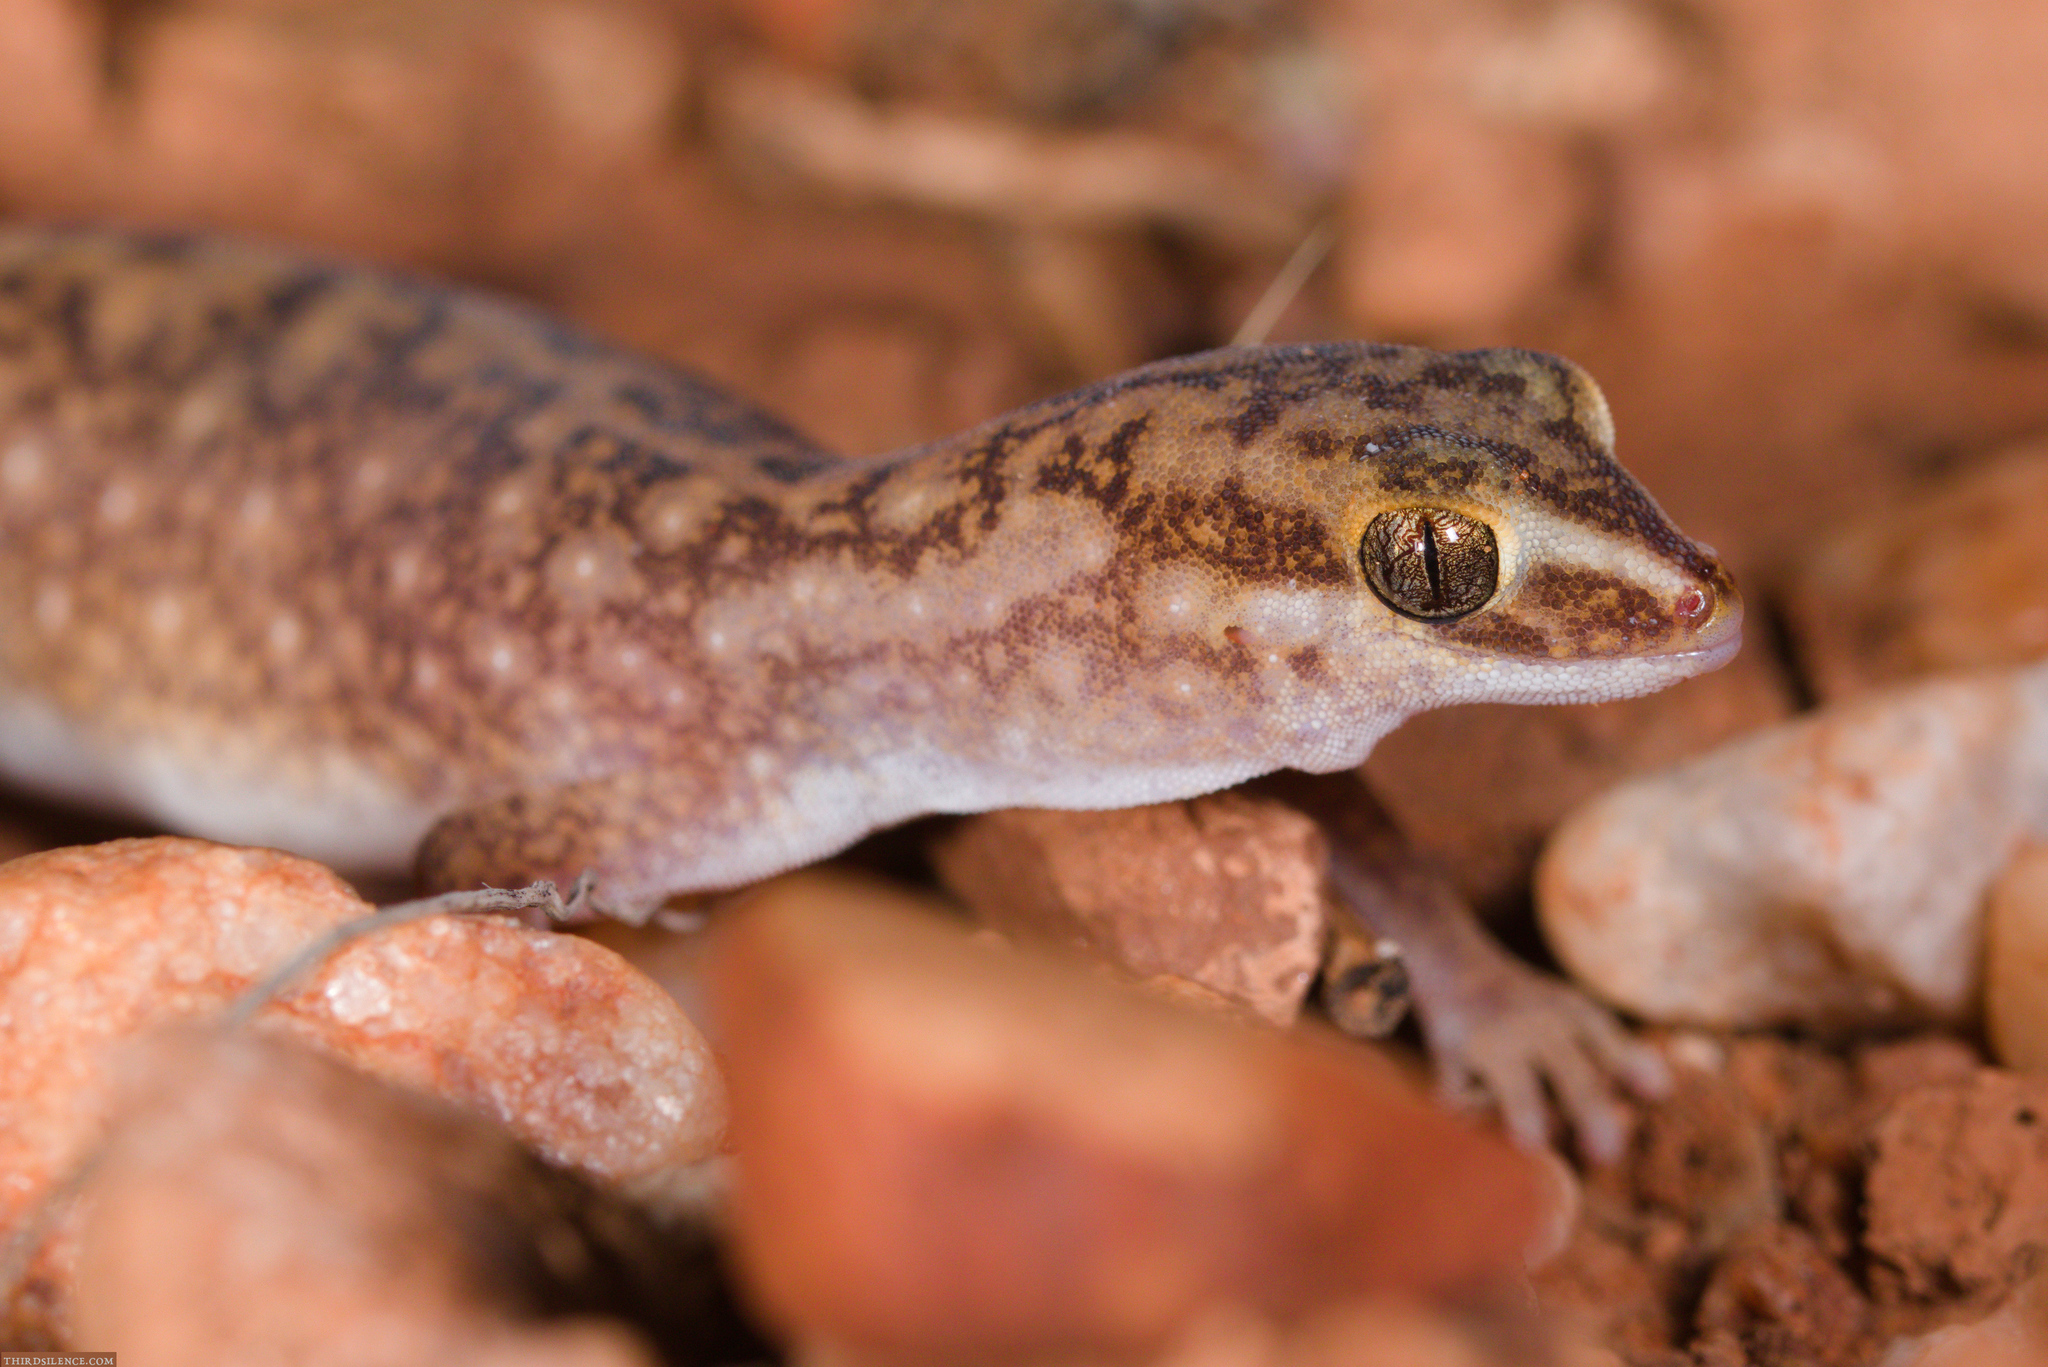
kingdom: Animalia
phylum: Chordata
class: Squamata
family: Diplodactylidae
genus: Diplodactylus
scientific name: Diplodactylus conspicillatus
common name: Burrow-plug gecko
